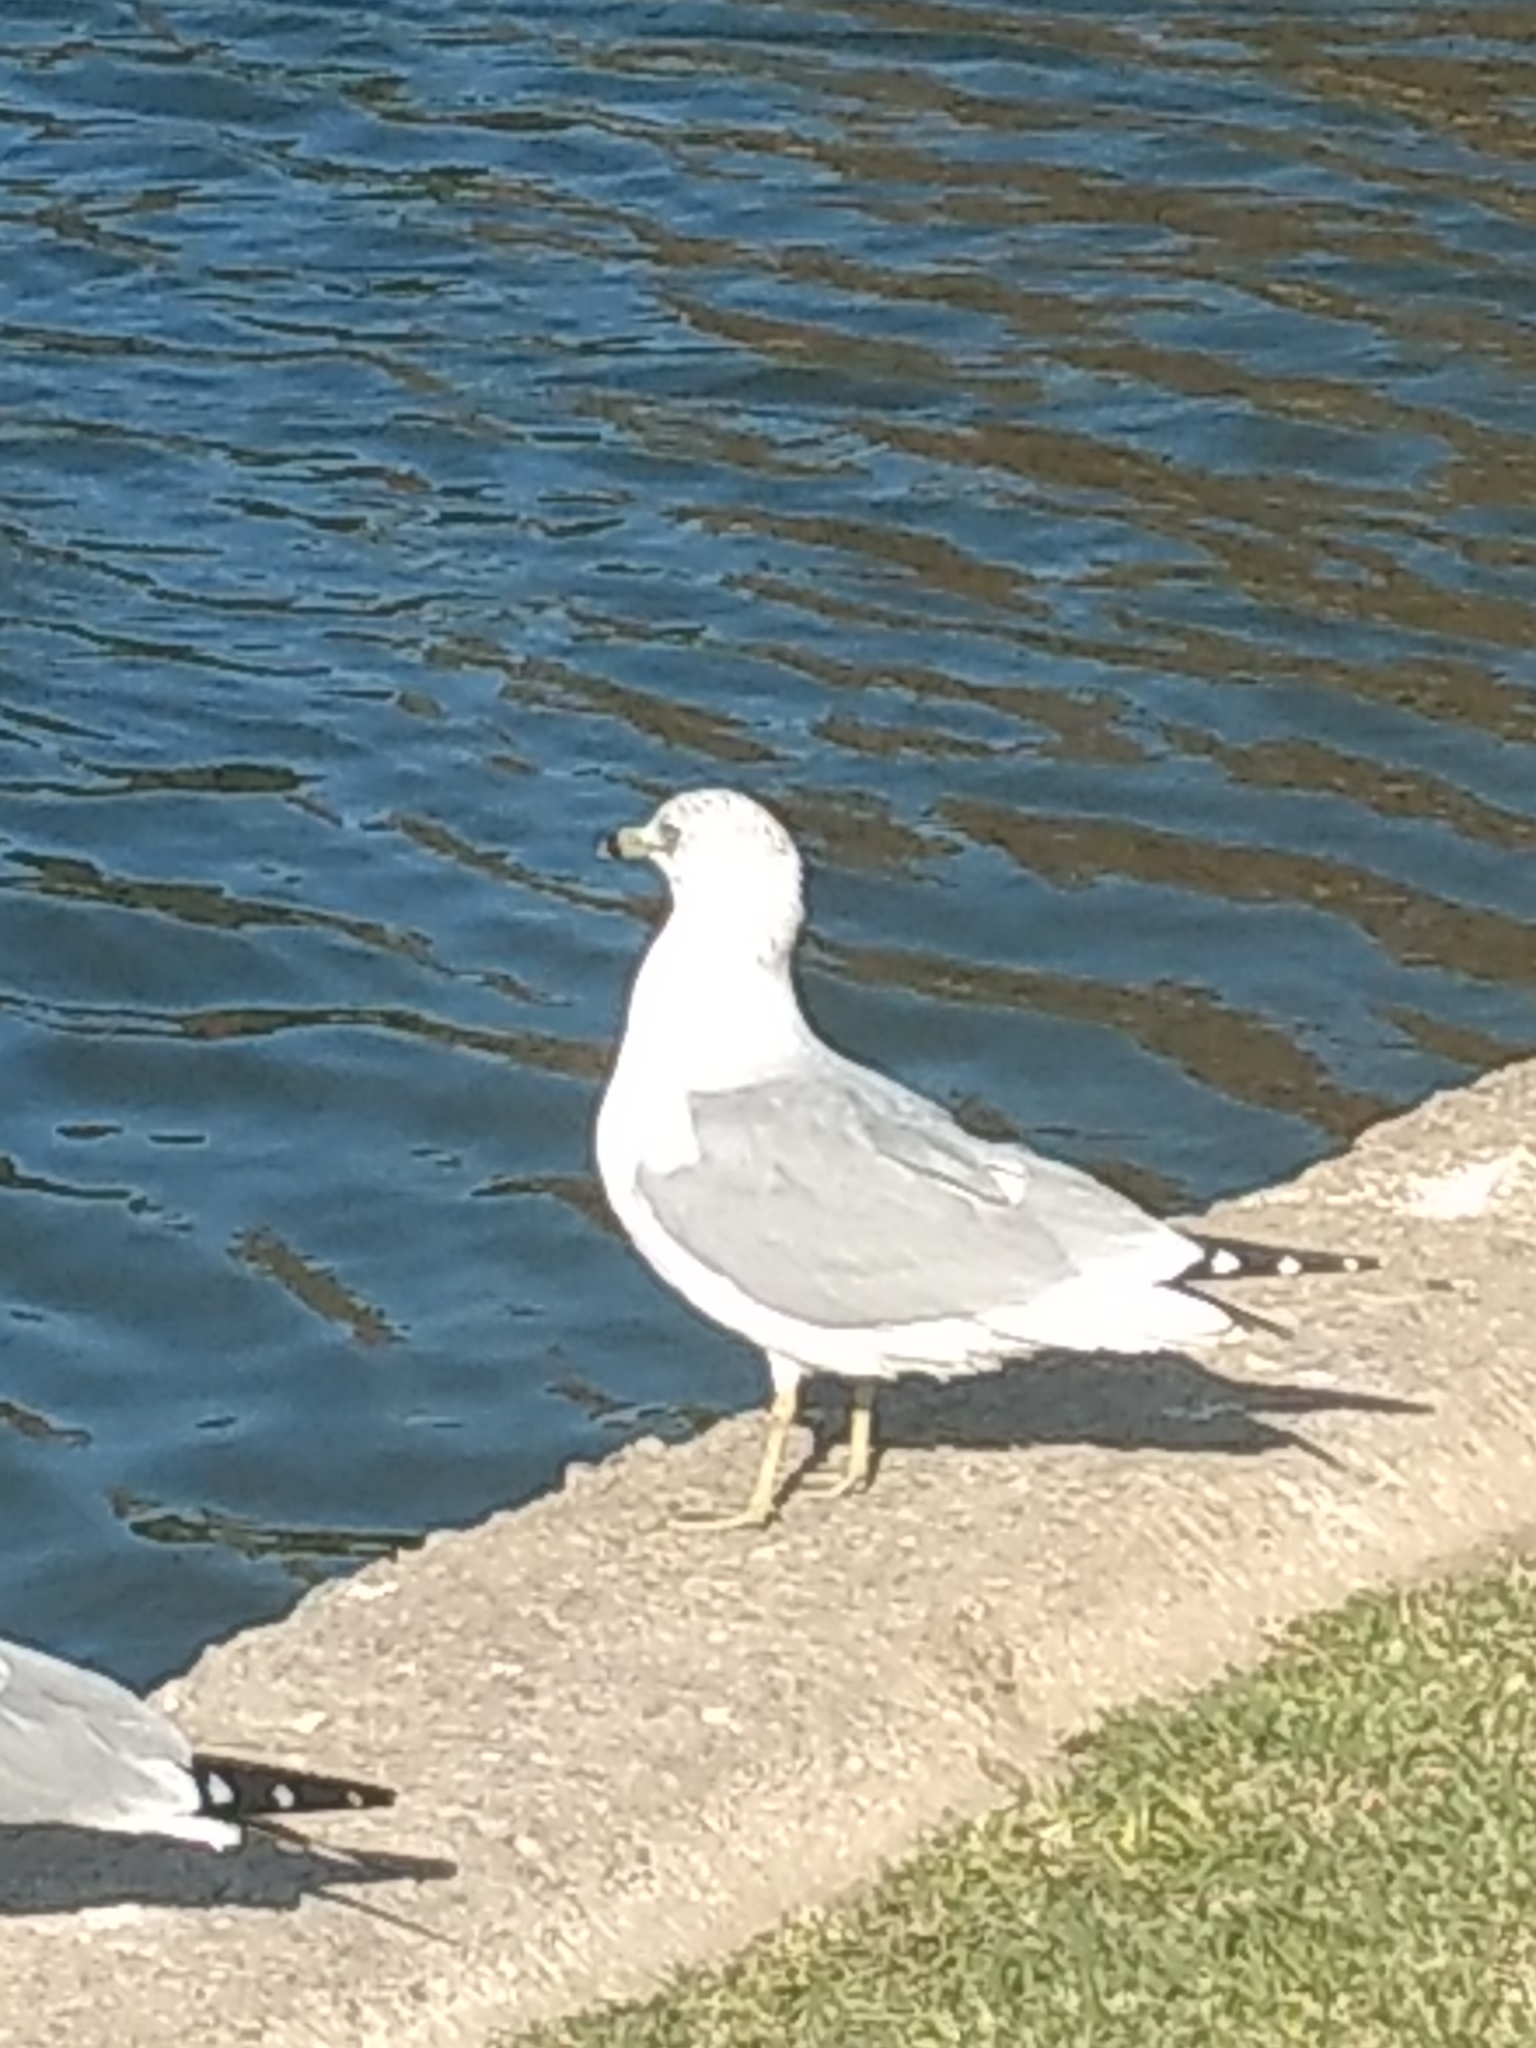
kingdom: Animalia
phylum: Chordata
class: Aves
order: Charadriiformes
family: Laridae
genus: Larus
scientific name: Larus delawarensis
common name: Ring-billed gull
